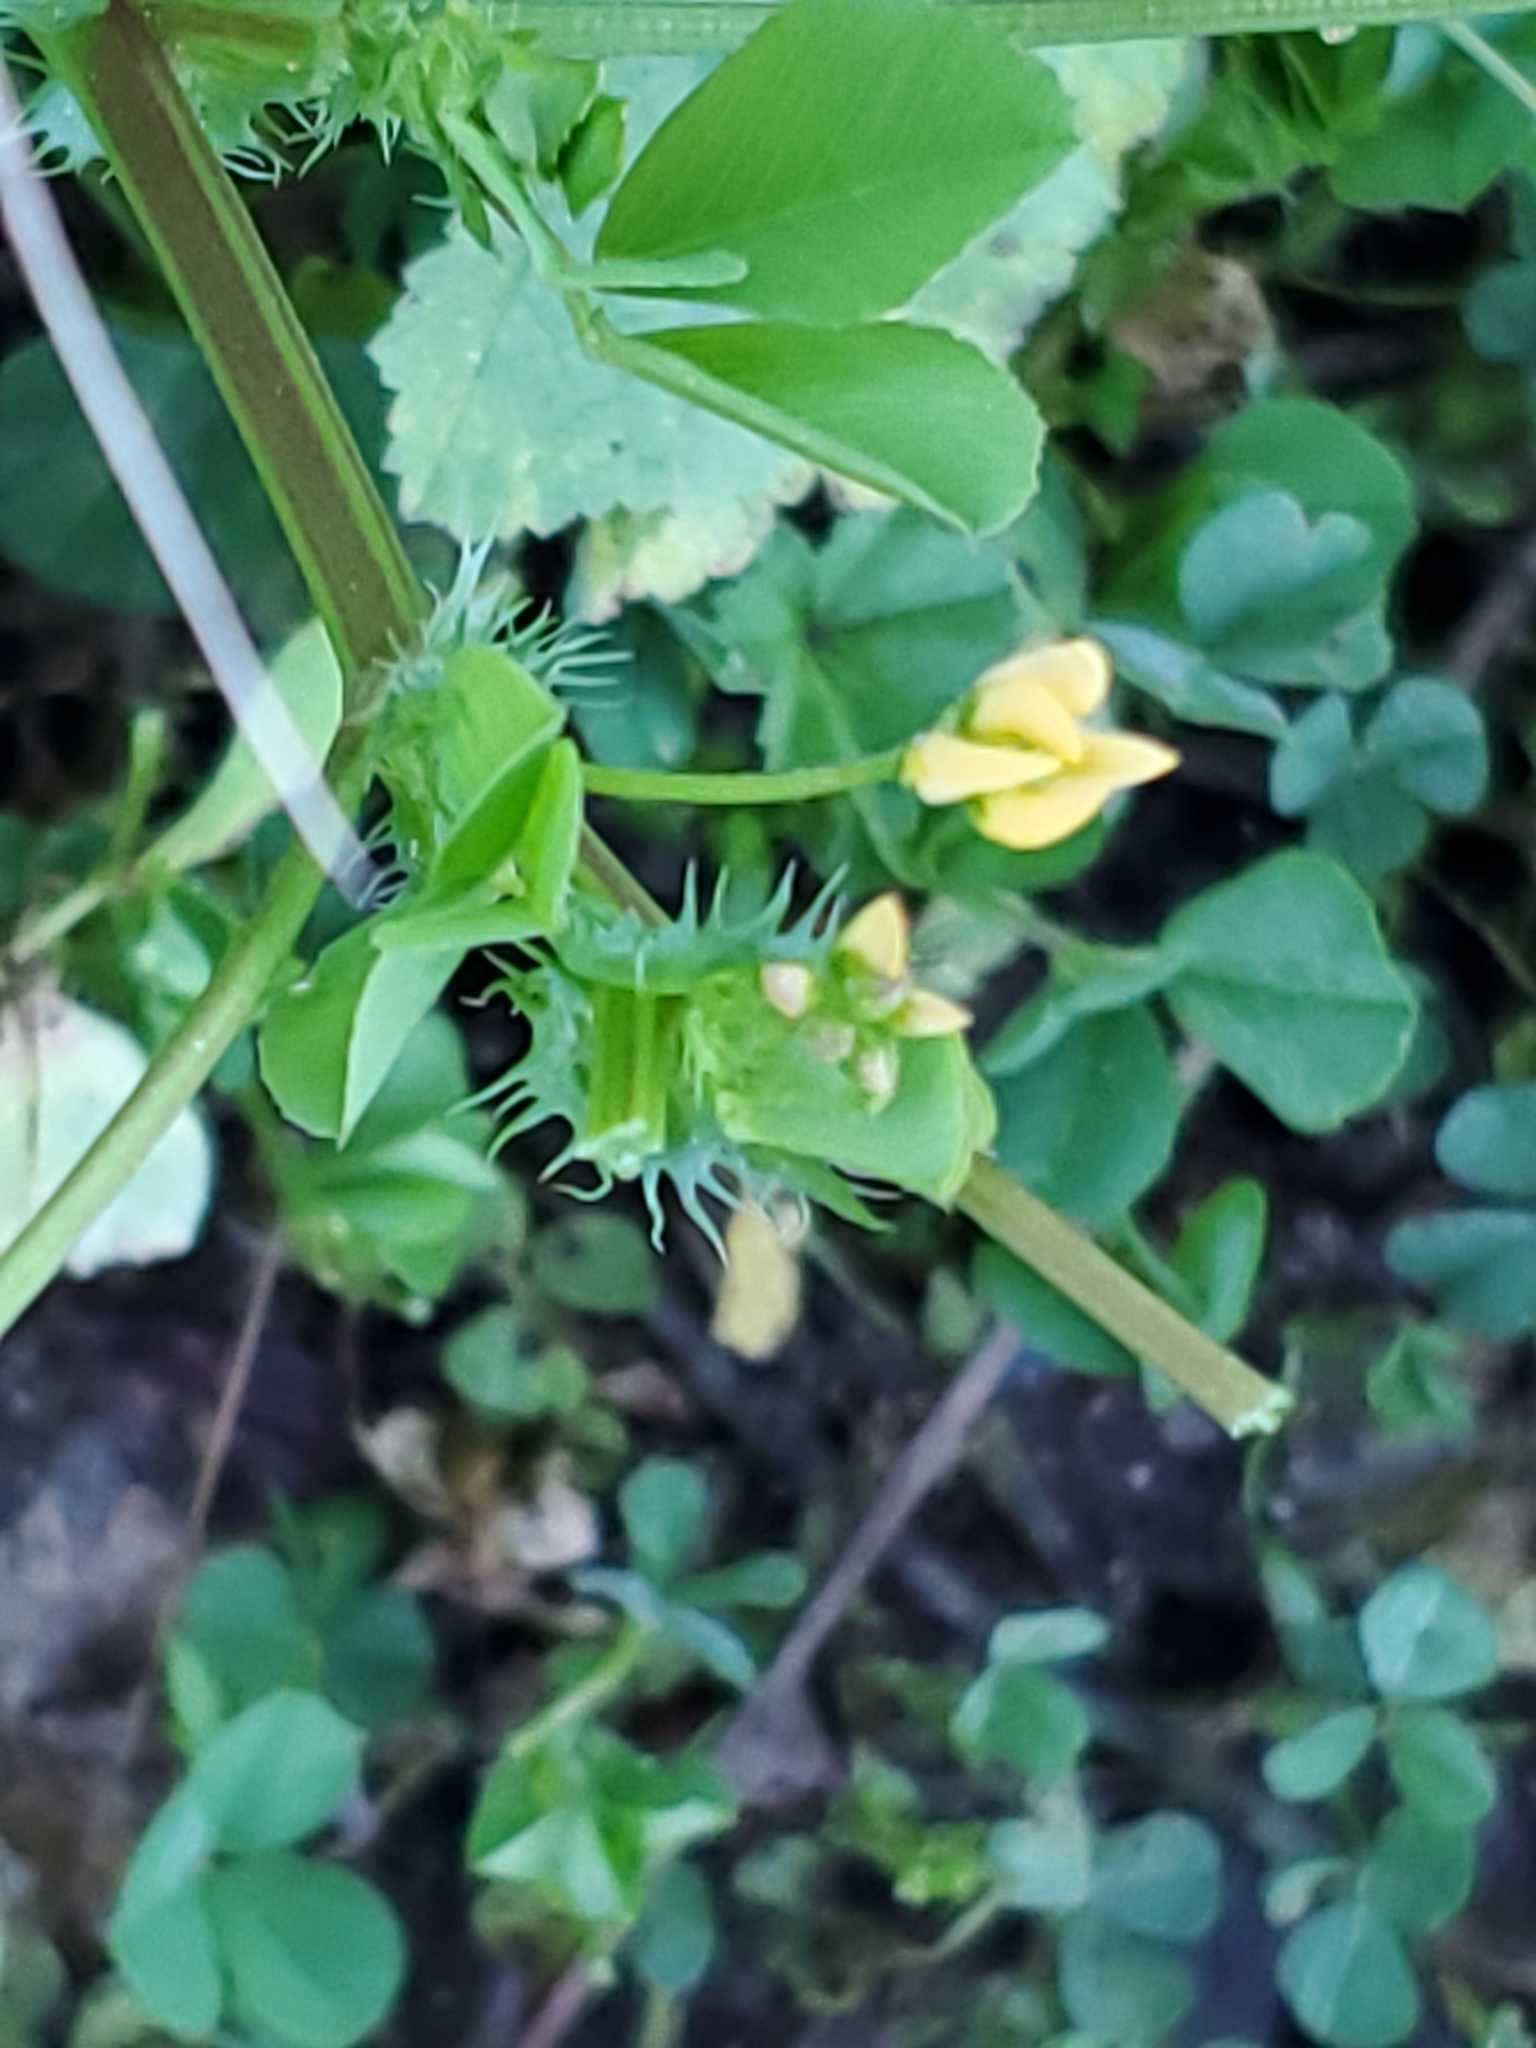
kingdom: Plantae
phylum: Tracheophyta
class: Magnoliopsida
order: Fabales
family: Fabaceae
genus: Medicago
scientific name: Medicago polymorpha
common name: Burclover
